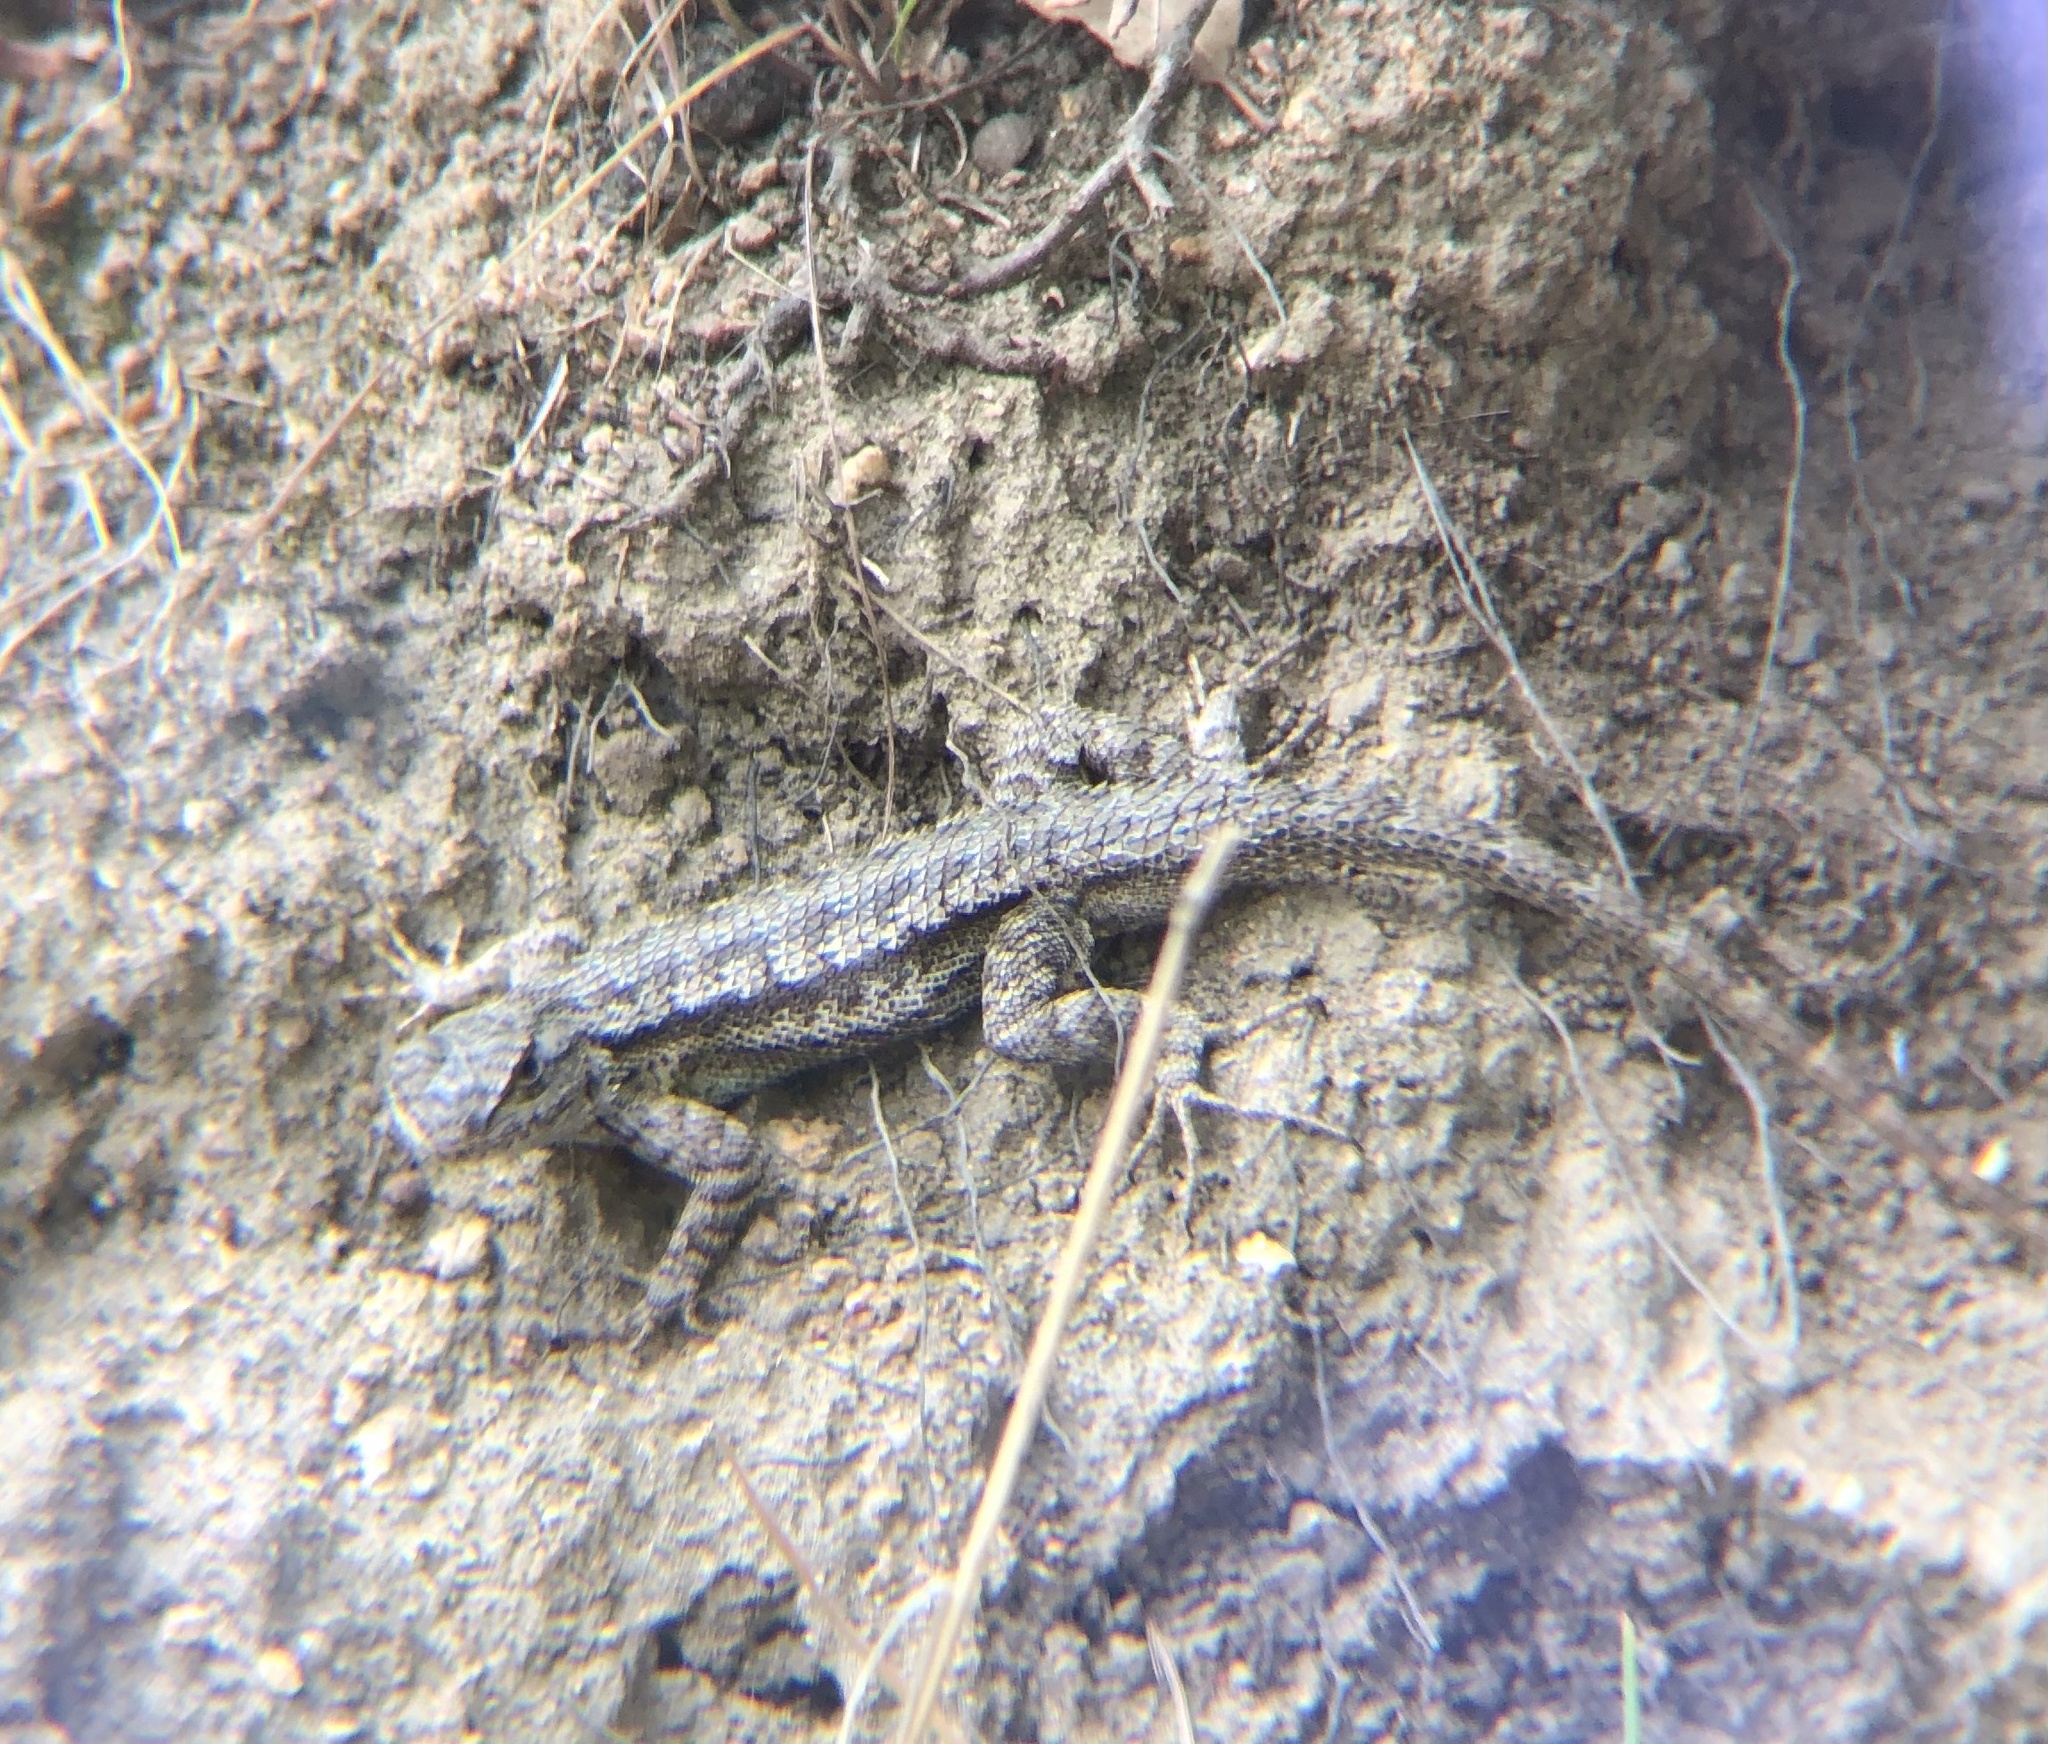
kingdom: Animalia
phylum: Chordata
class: Squamata
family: Phrynosomatidae
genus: Sceloporus
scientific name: Sceloporus occidentalis
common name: Western fence lizard
